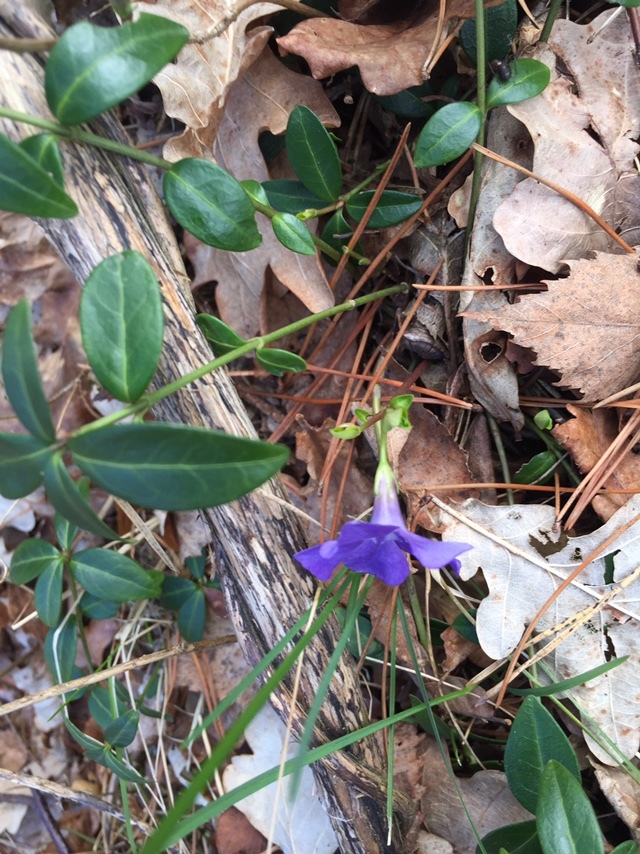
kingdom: Plantae
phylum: Tracheophyta
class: Magnoliopsida
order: Gentianales
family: Apocynaceae
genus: Vinca
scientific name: Vinca minor
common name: Lesser periwinkle
